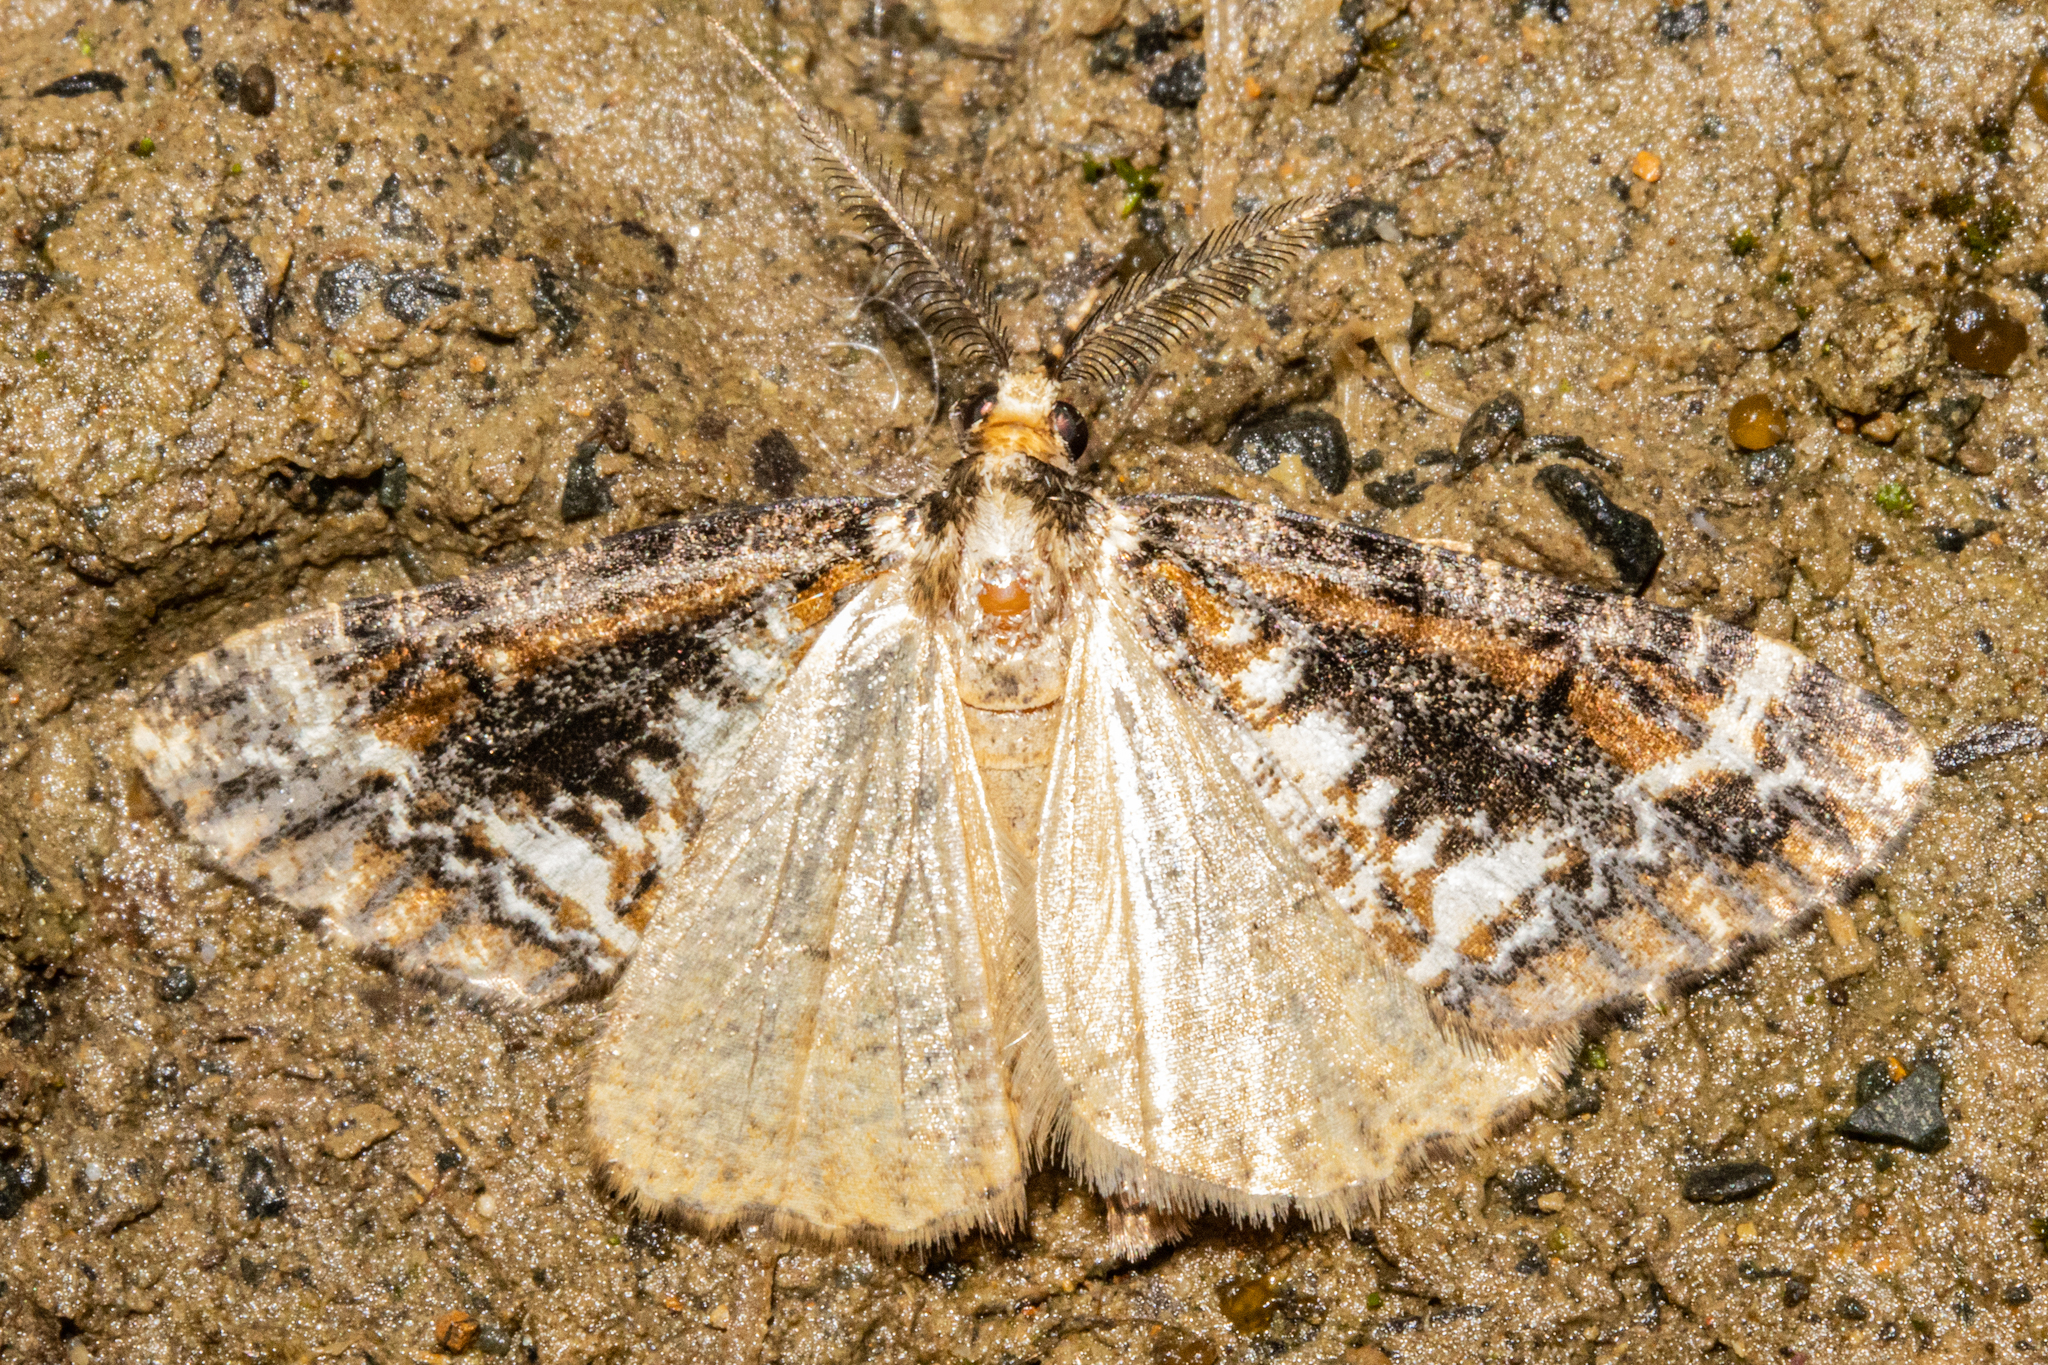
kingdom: Animalia
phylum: Arthropoda
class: Insecta
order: Lepidoptera
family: Geometridae
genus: Pseudocoremia
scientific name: Pseudocoremia leucelaea
